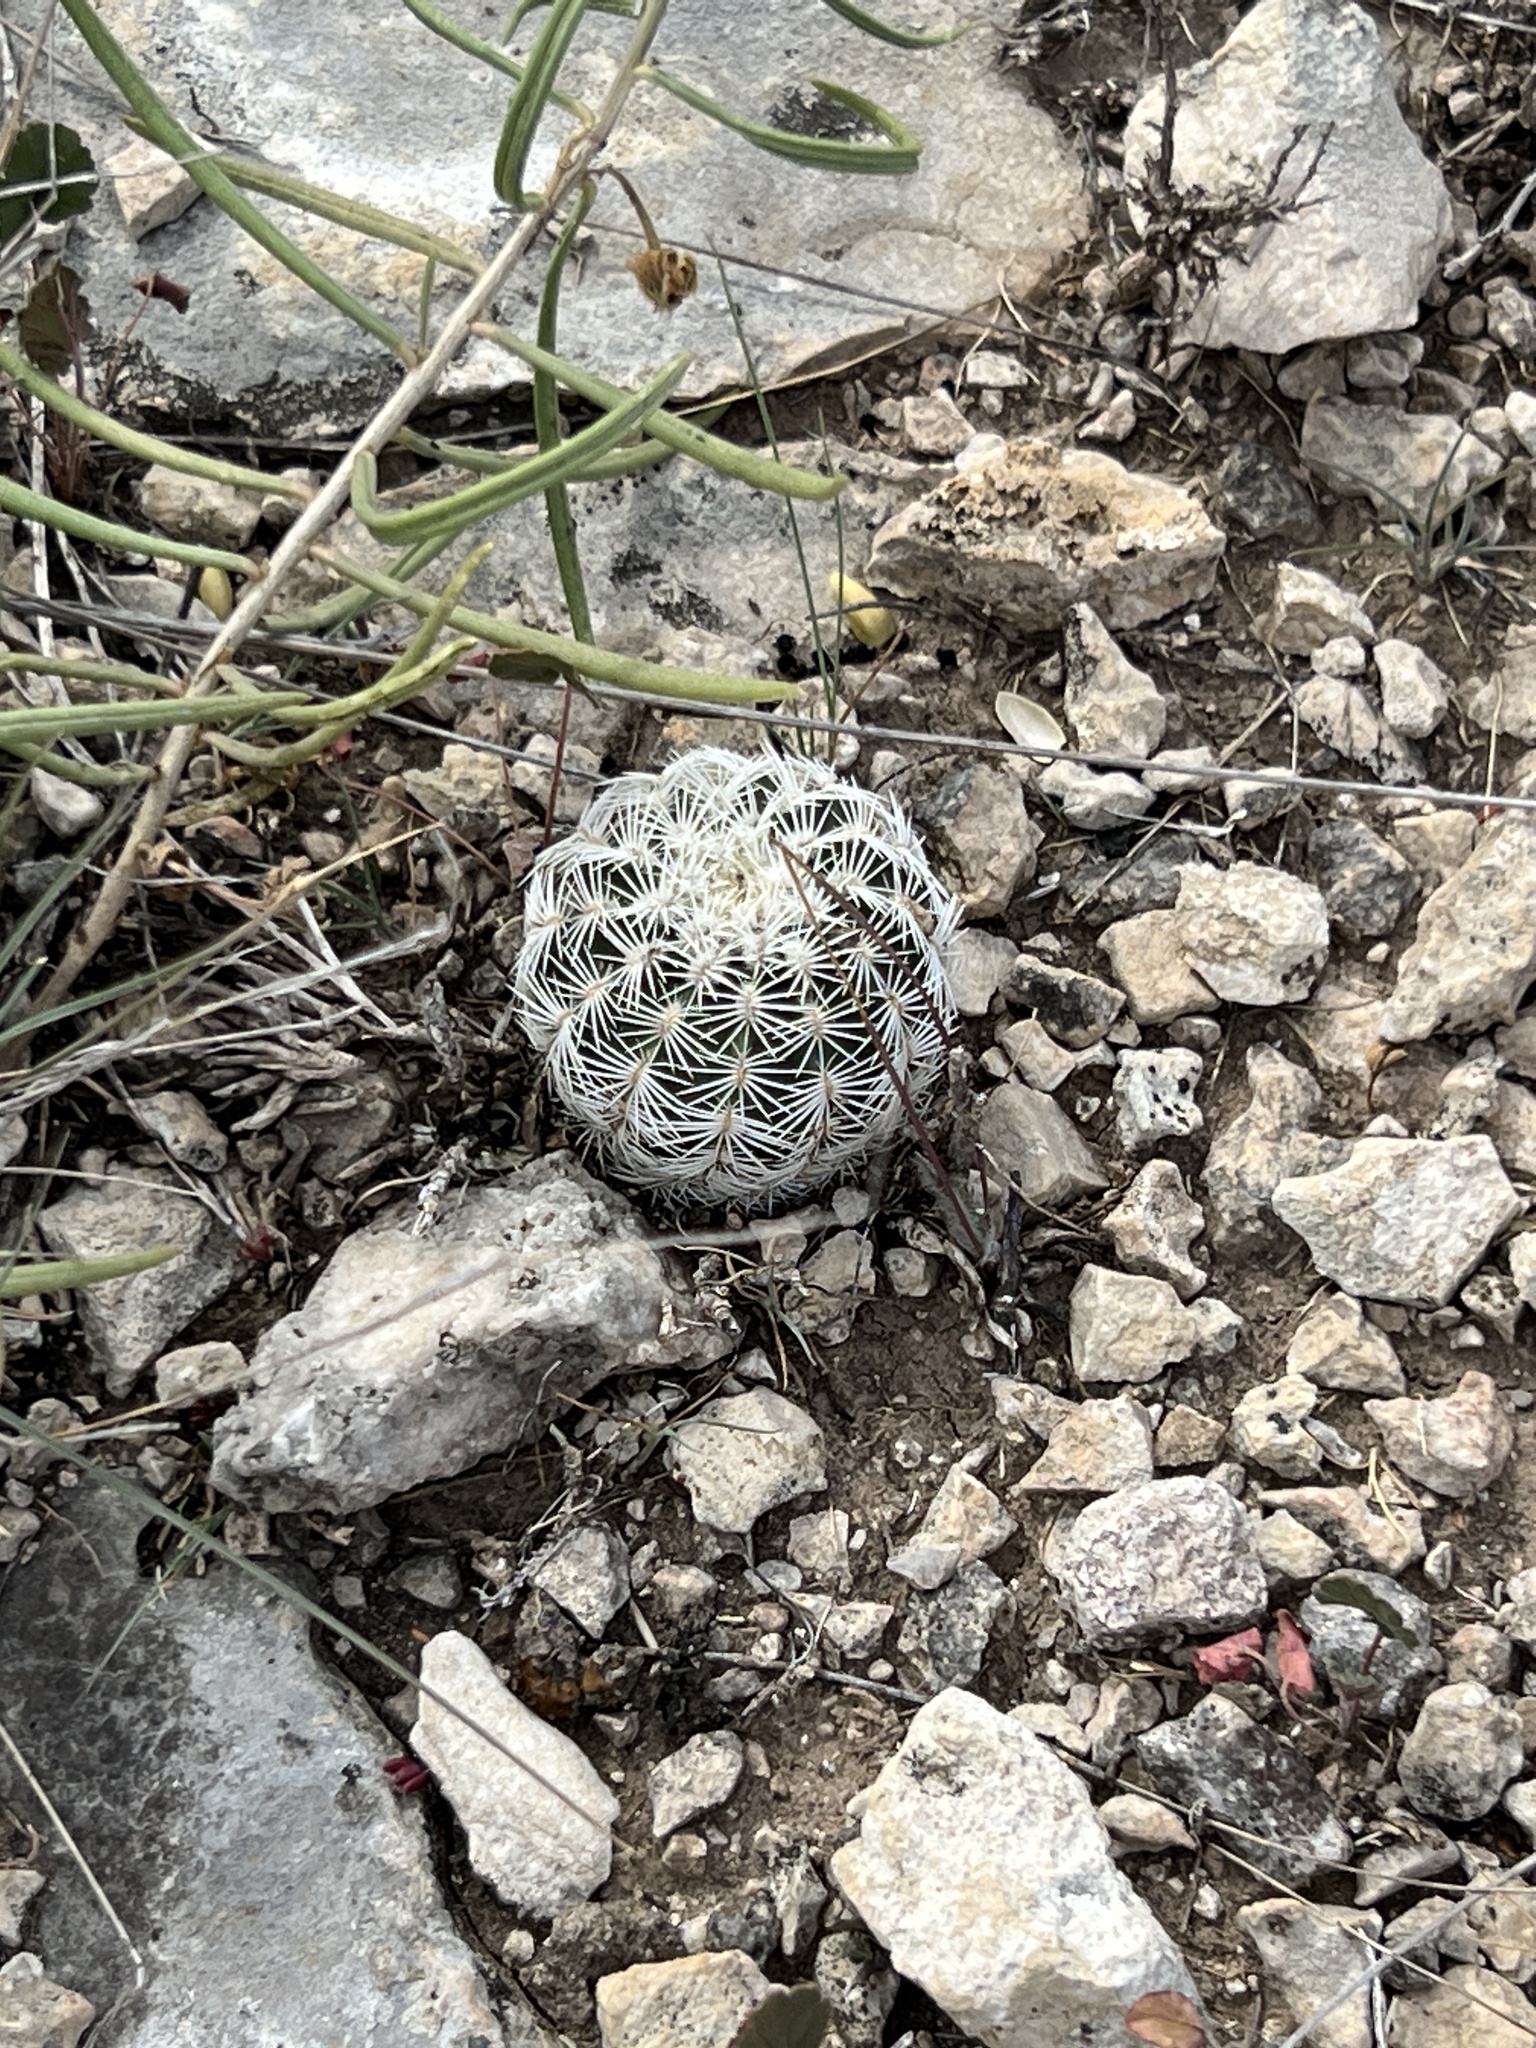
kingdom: Plantae
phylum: Tracheophyta
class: Magnoliopsida
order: Caryophyllales
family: Cactaceae
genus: Echinocereus
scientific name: Echinocereus reichenbachii
